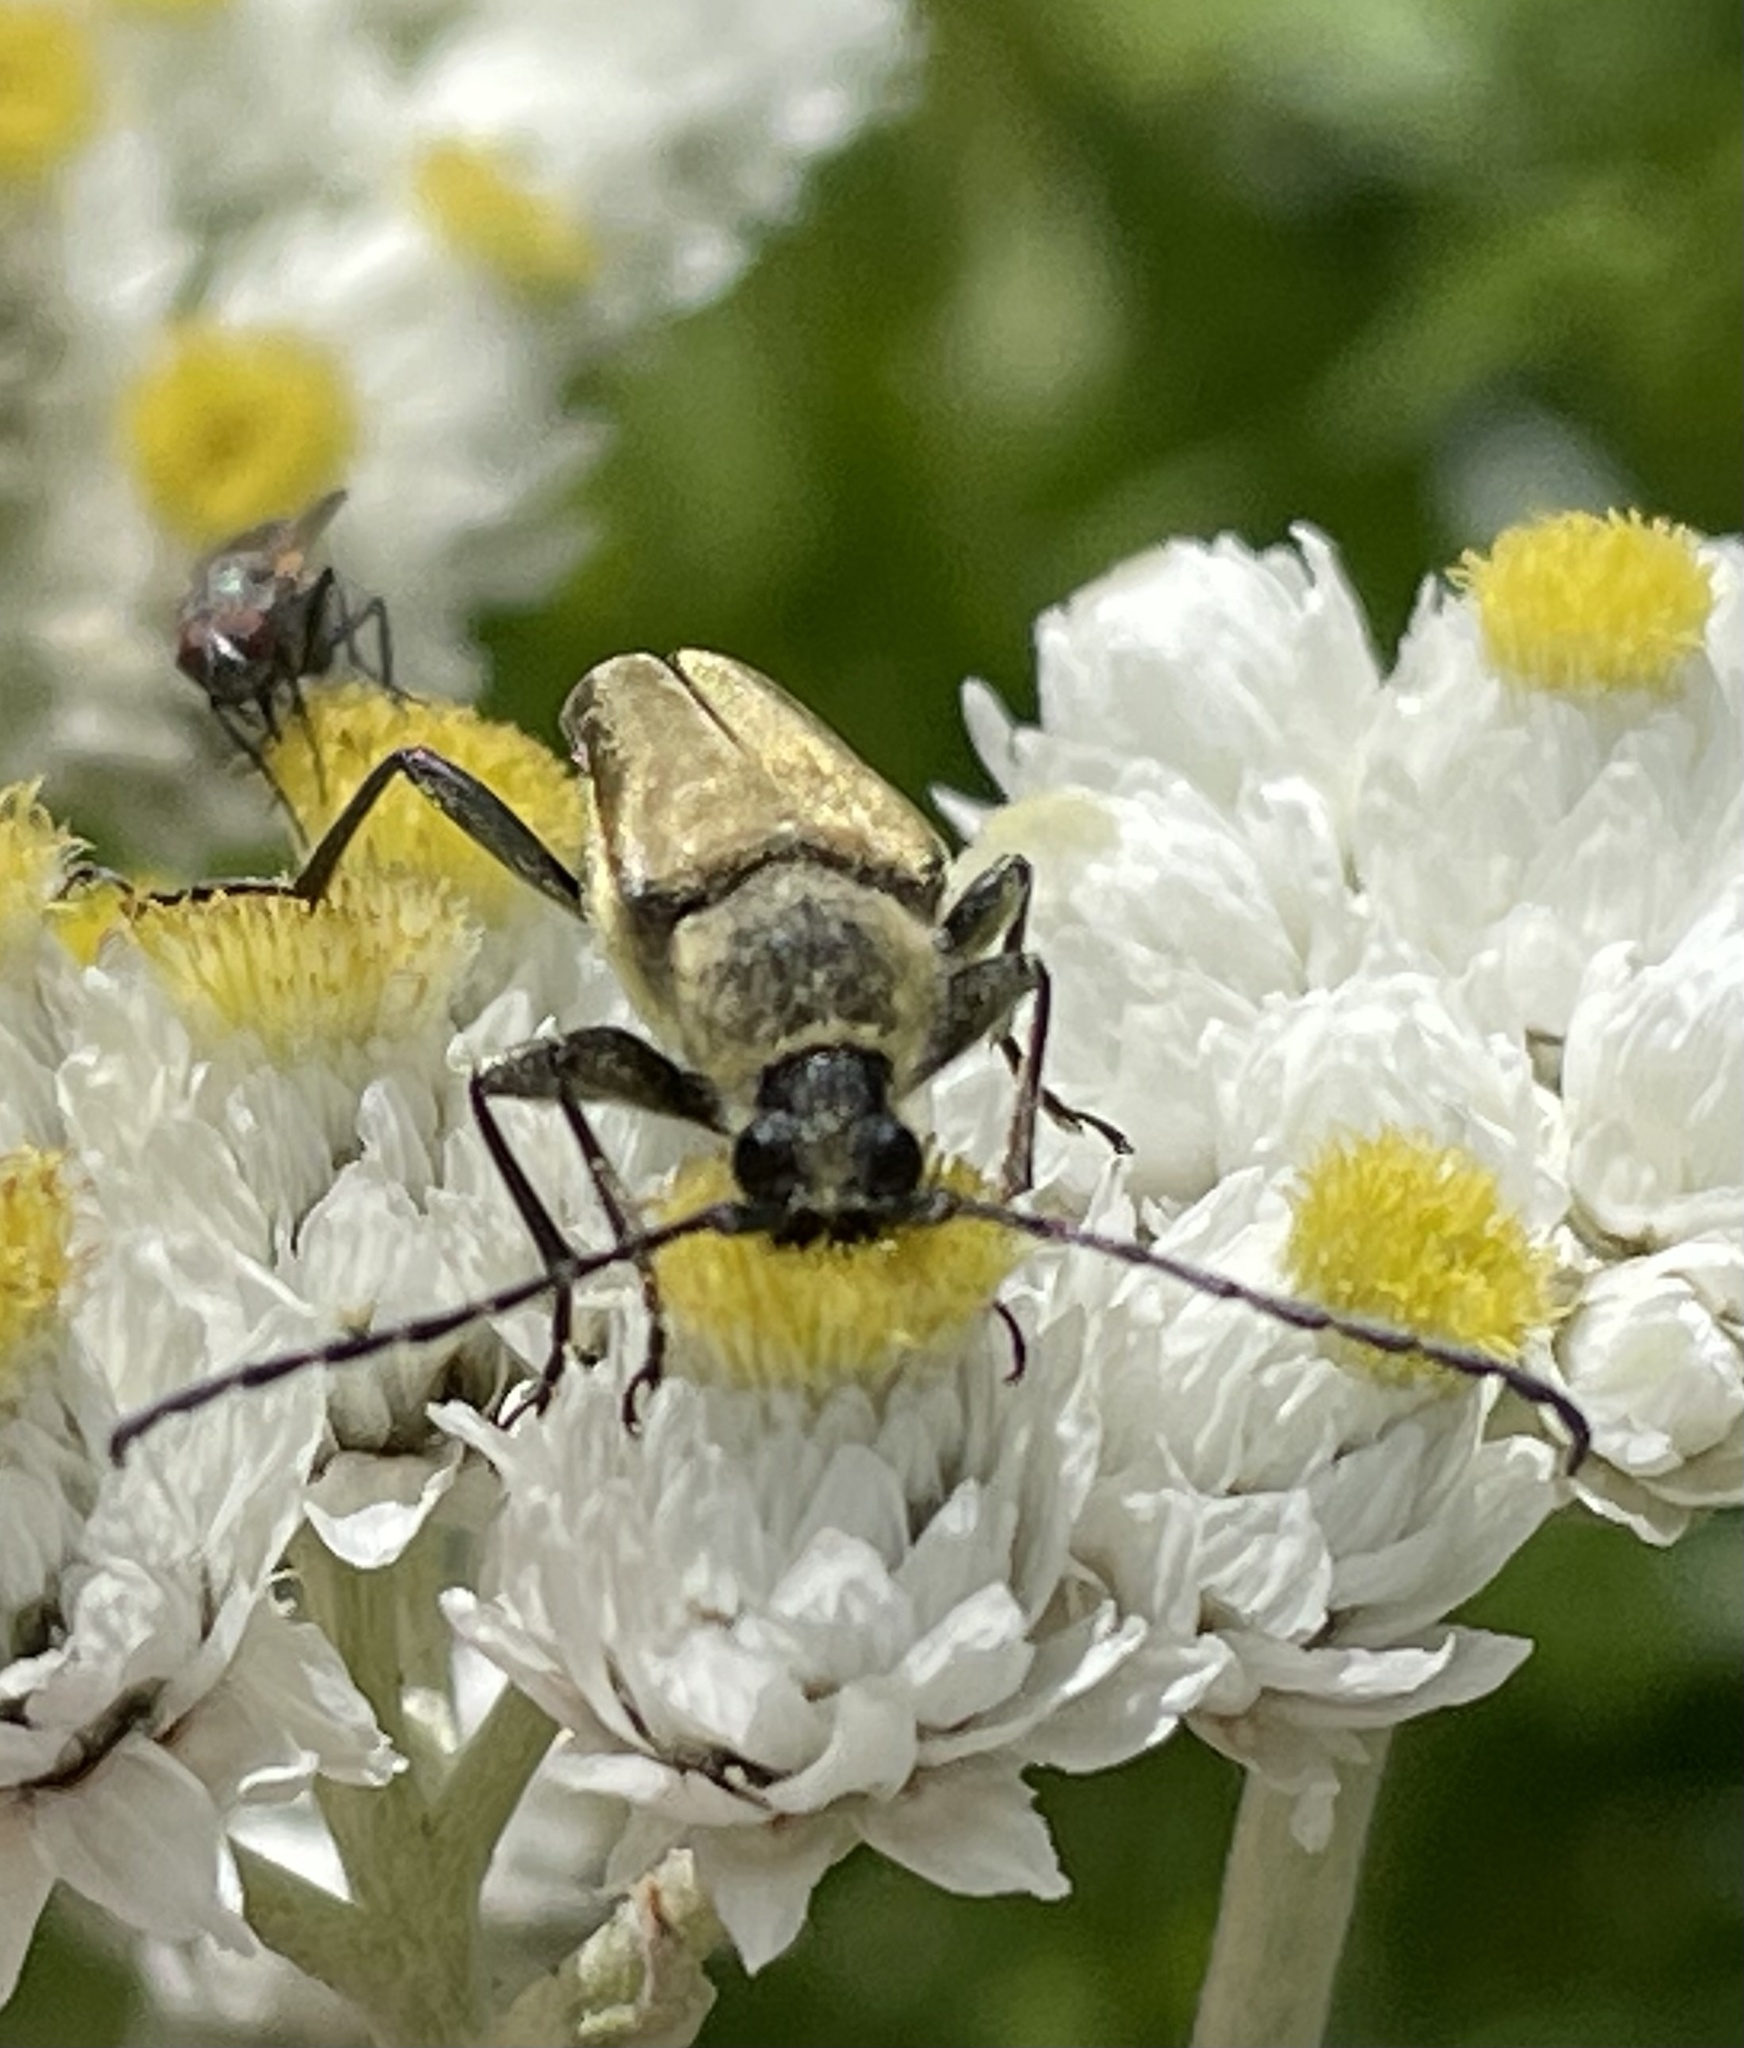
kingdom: Animalia
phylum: Arthropoda
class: Insecta
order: Coleoptera
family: Cerambycidae
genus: Cosmosalia
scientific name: Cosmosalia chrysocoma
